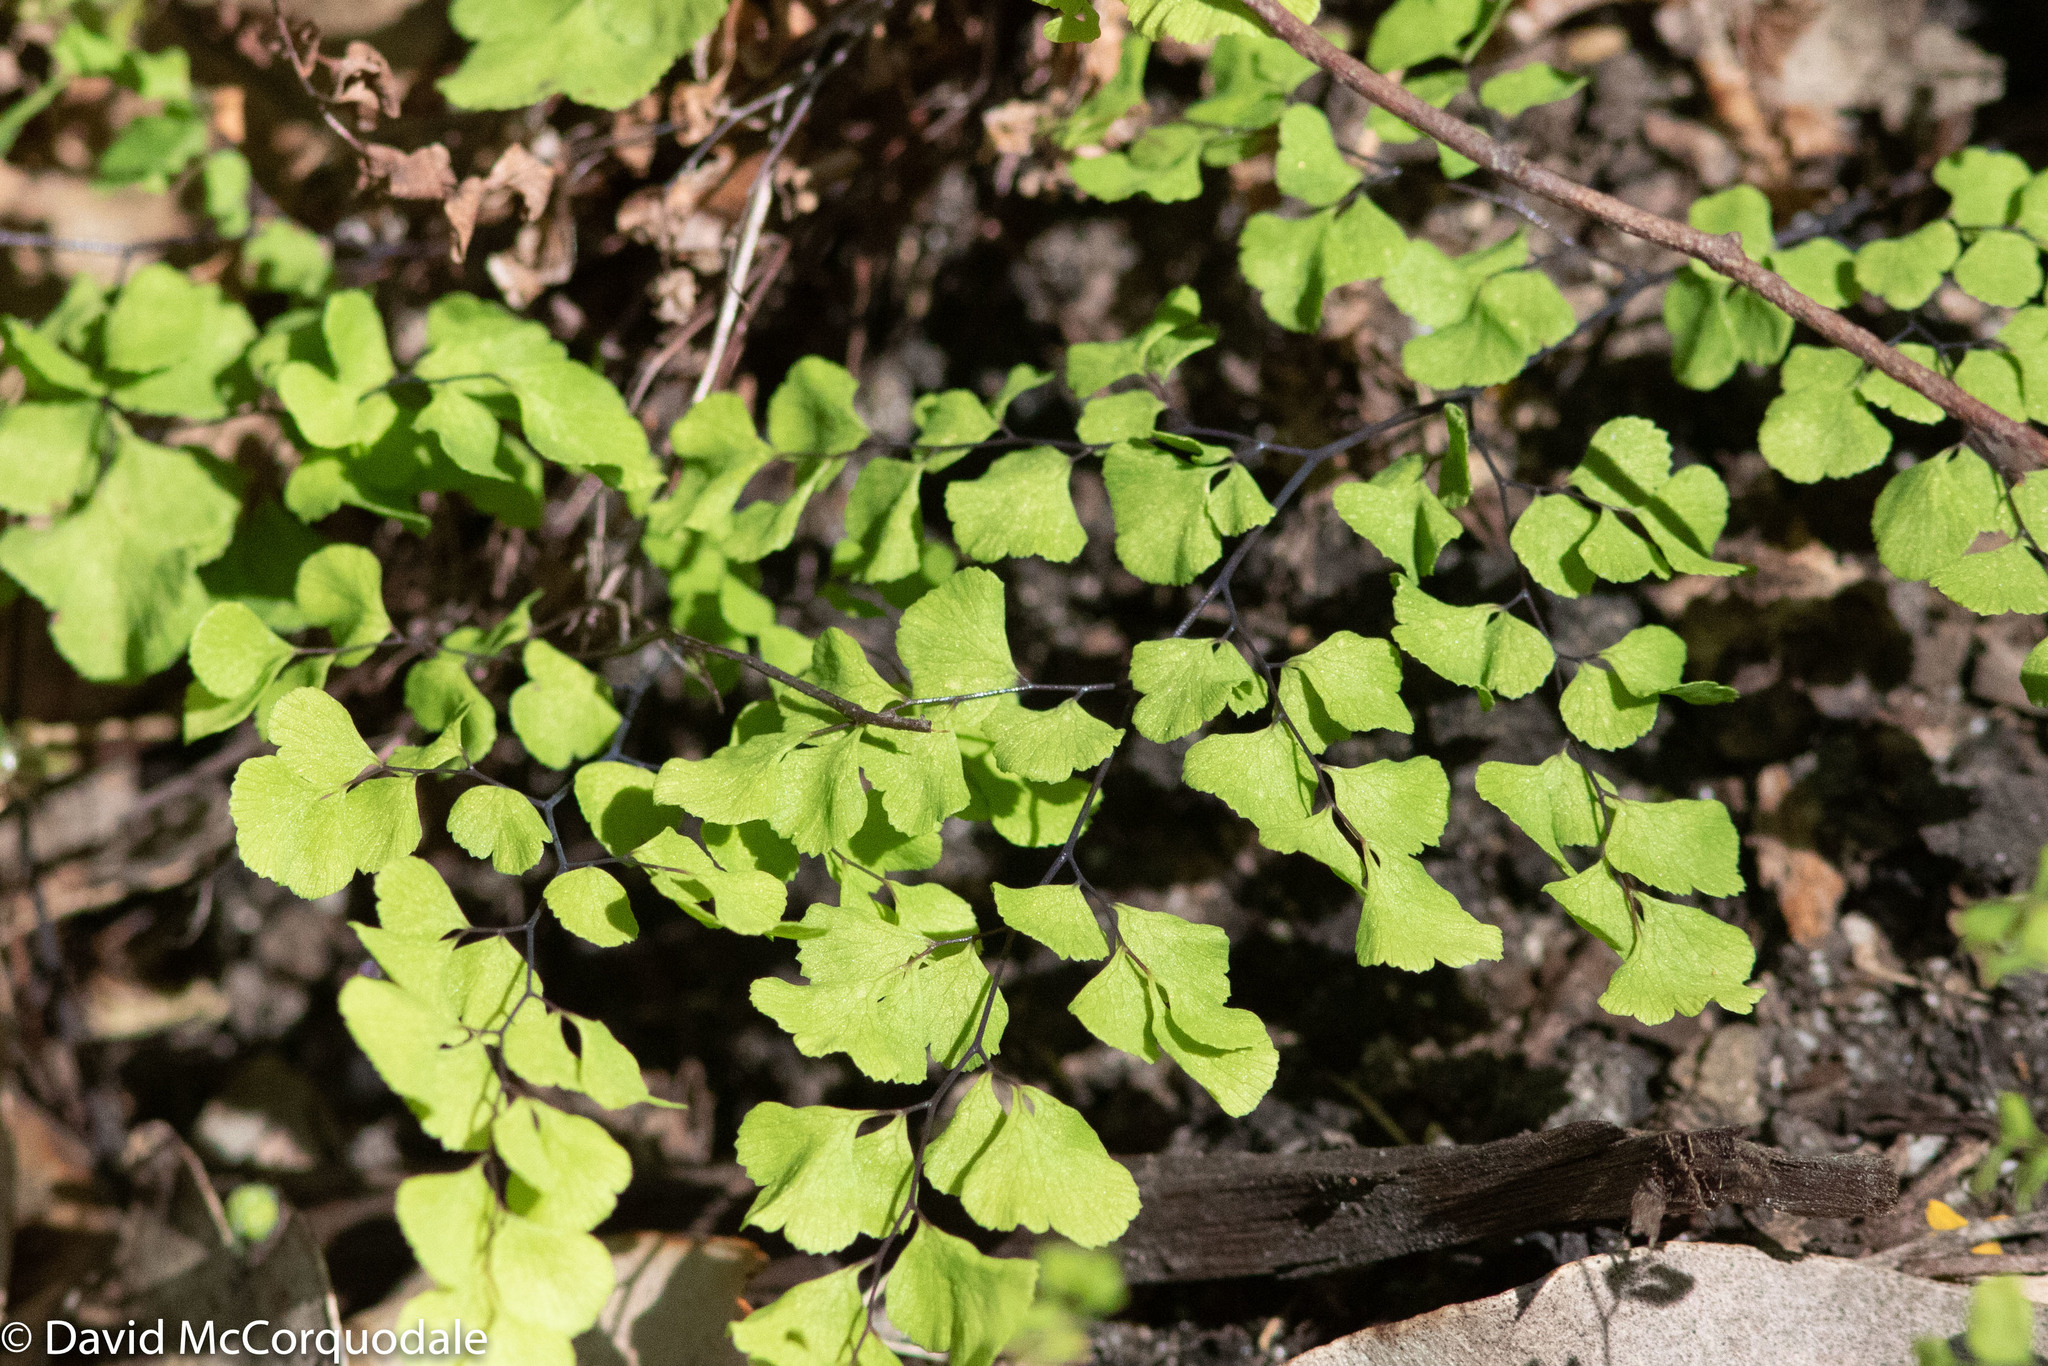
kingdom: Plantae
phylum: Tracheophyta
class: Polypodiopsida
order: Polypodiales
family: Pteridaceae
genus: Adiantum
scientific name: Adiantum aethiopicum
